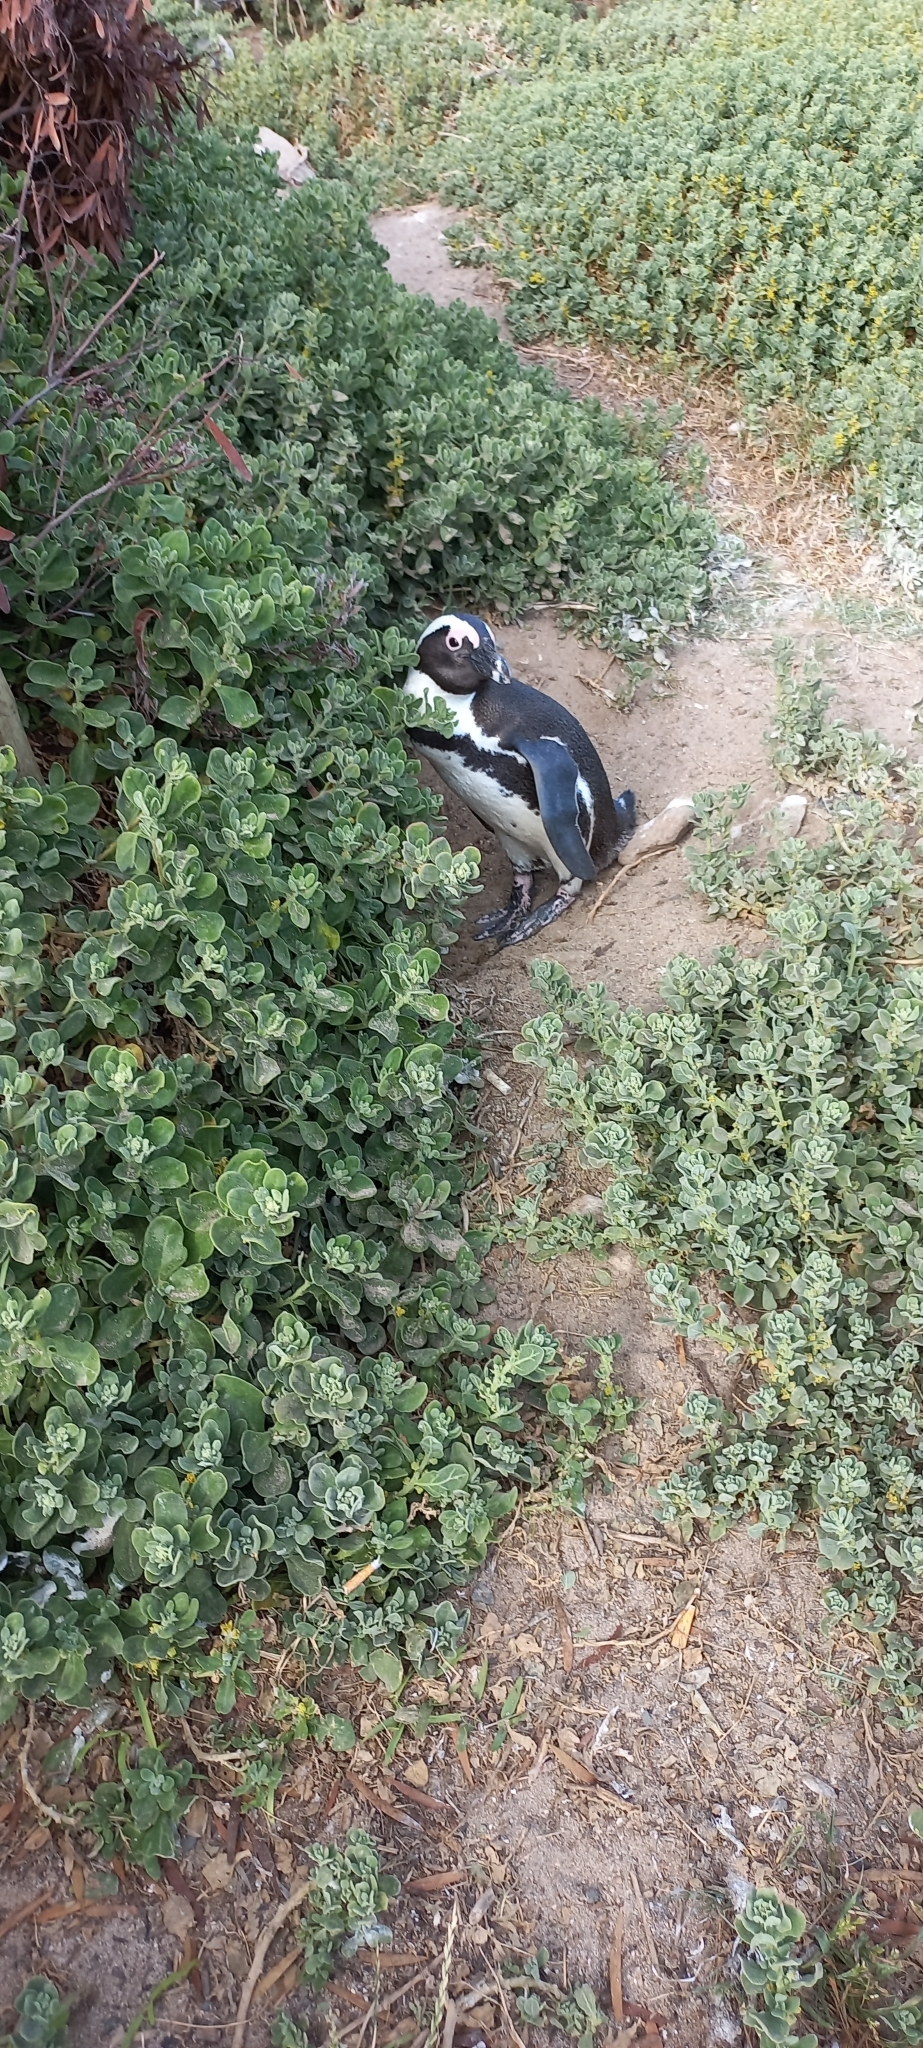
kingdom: Animalia
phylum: Chordata
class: Aves
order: Sphenisciformes
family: Spheniscidae
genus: Spheniscus
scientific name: Spheniscus demersus
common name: African penguin
